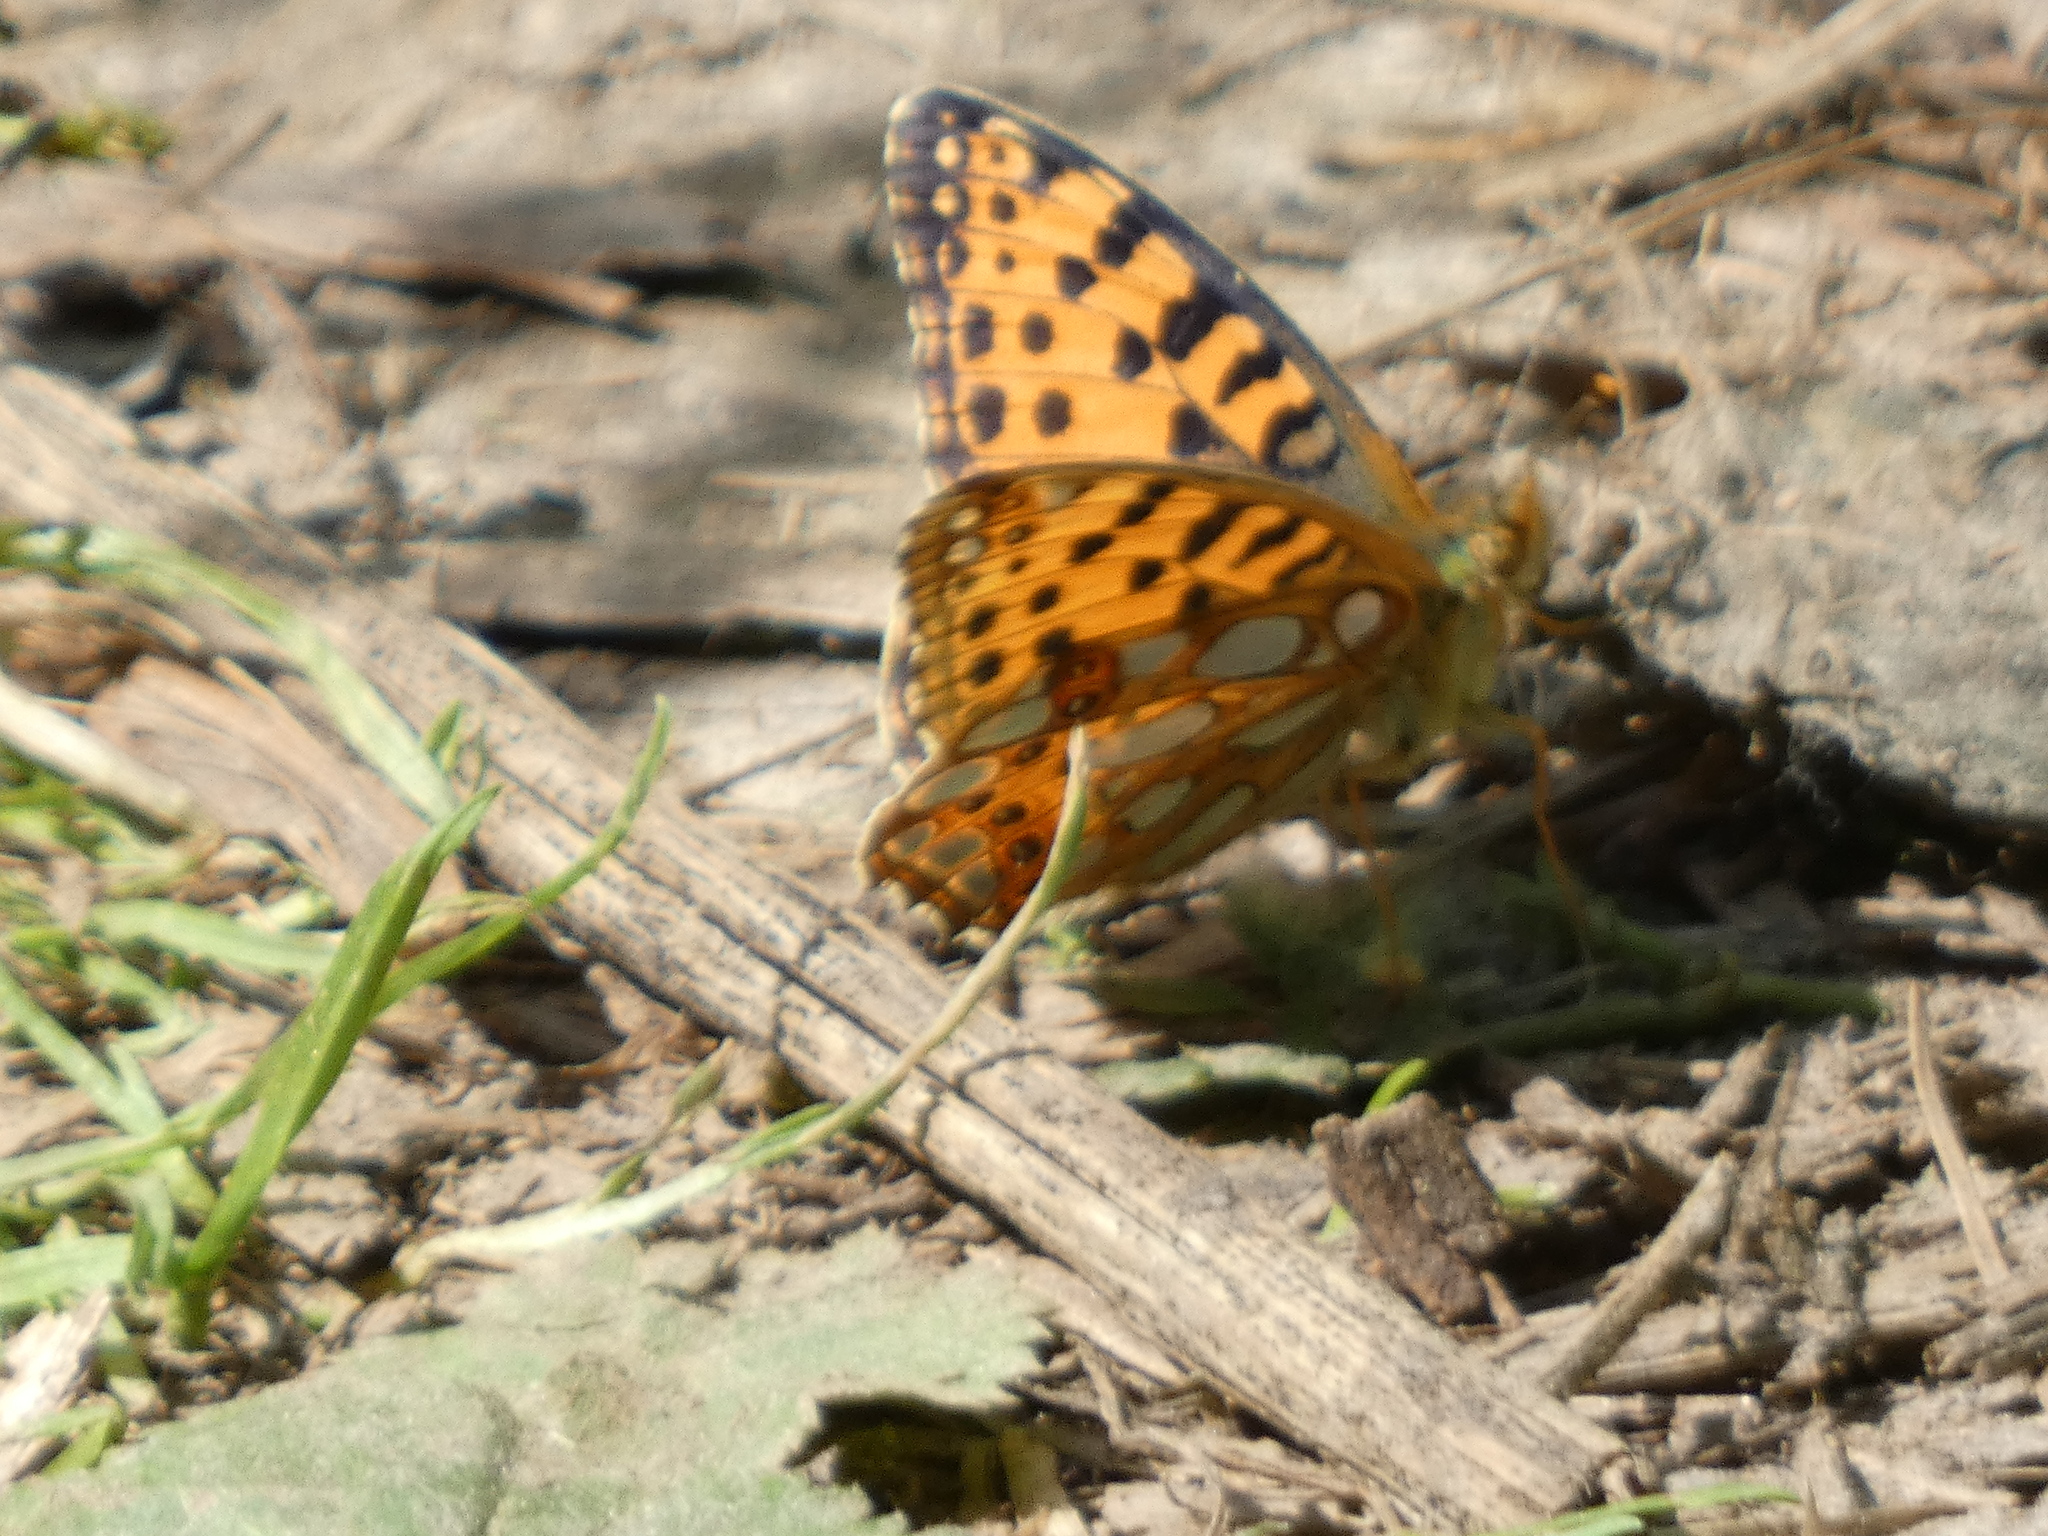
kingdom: Animalia
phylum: Arthropoda
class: Insecta
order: Lepidoptera
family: Nymphalidae
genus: Issoria
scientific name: Issoria lathonia
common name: Queen of spain fritillary
